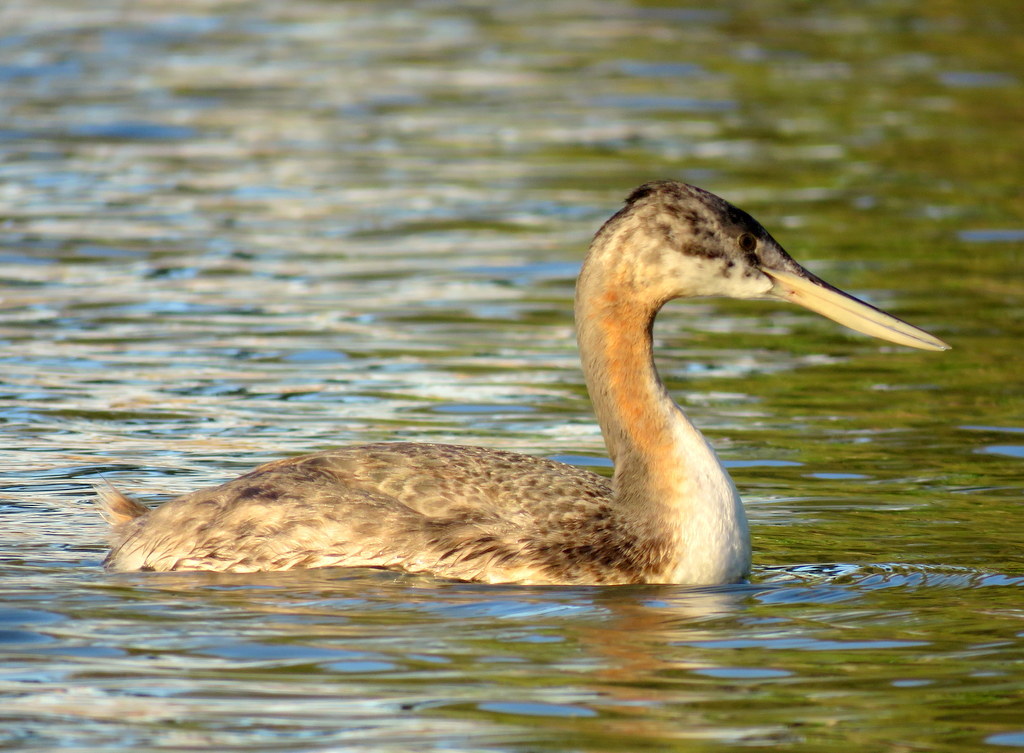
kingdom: Animalia
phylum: Chordata
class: Aves
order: Podicipediformes
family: Podicipedidae
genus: Podiceps
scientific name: Podiceps major
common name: Great grebe
